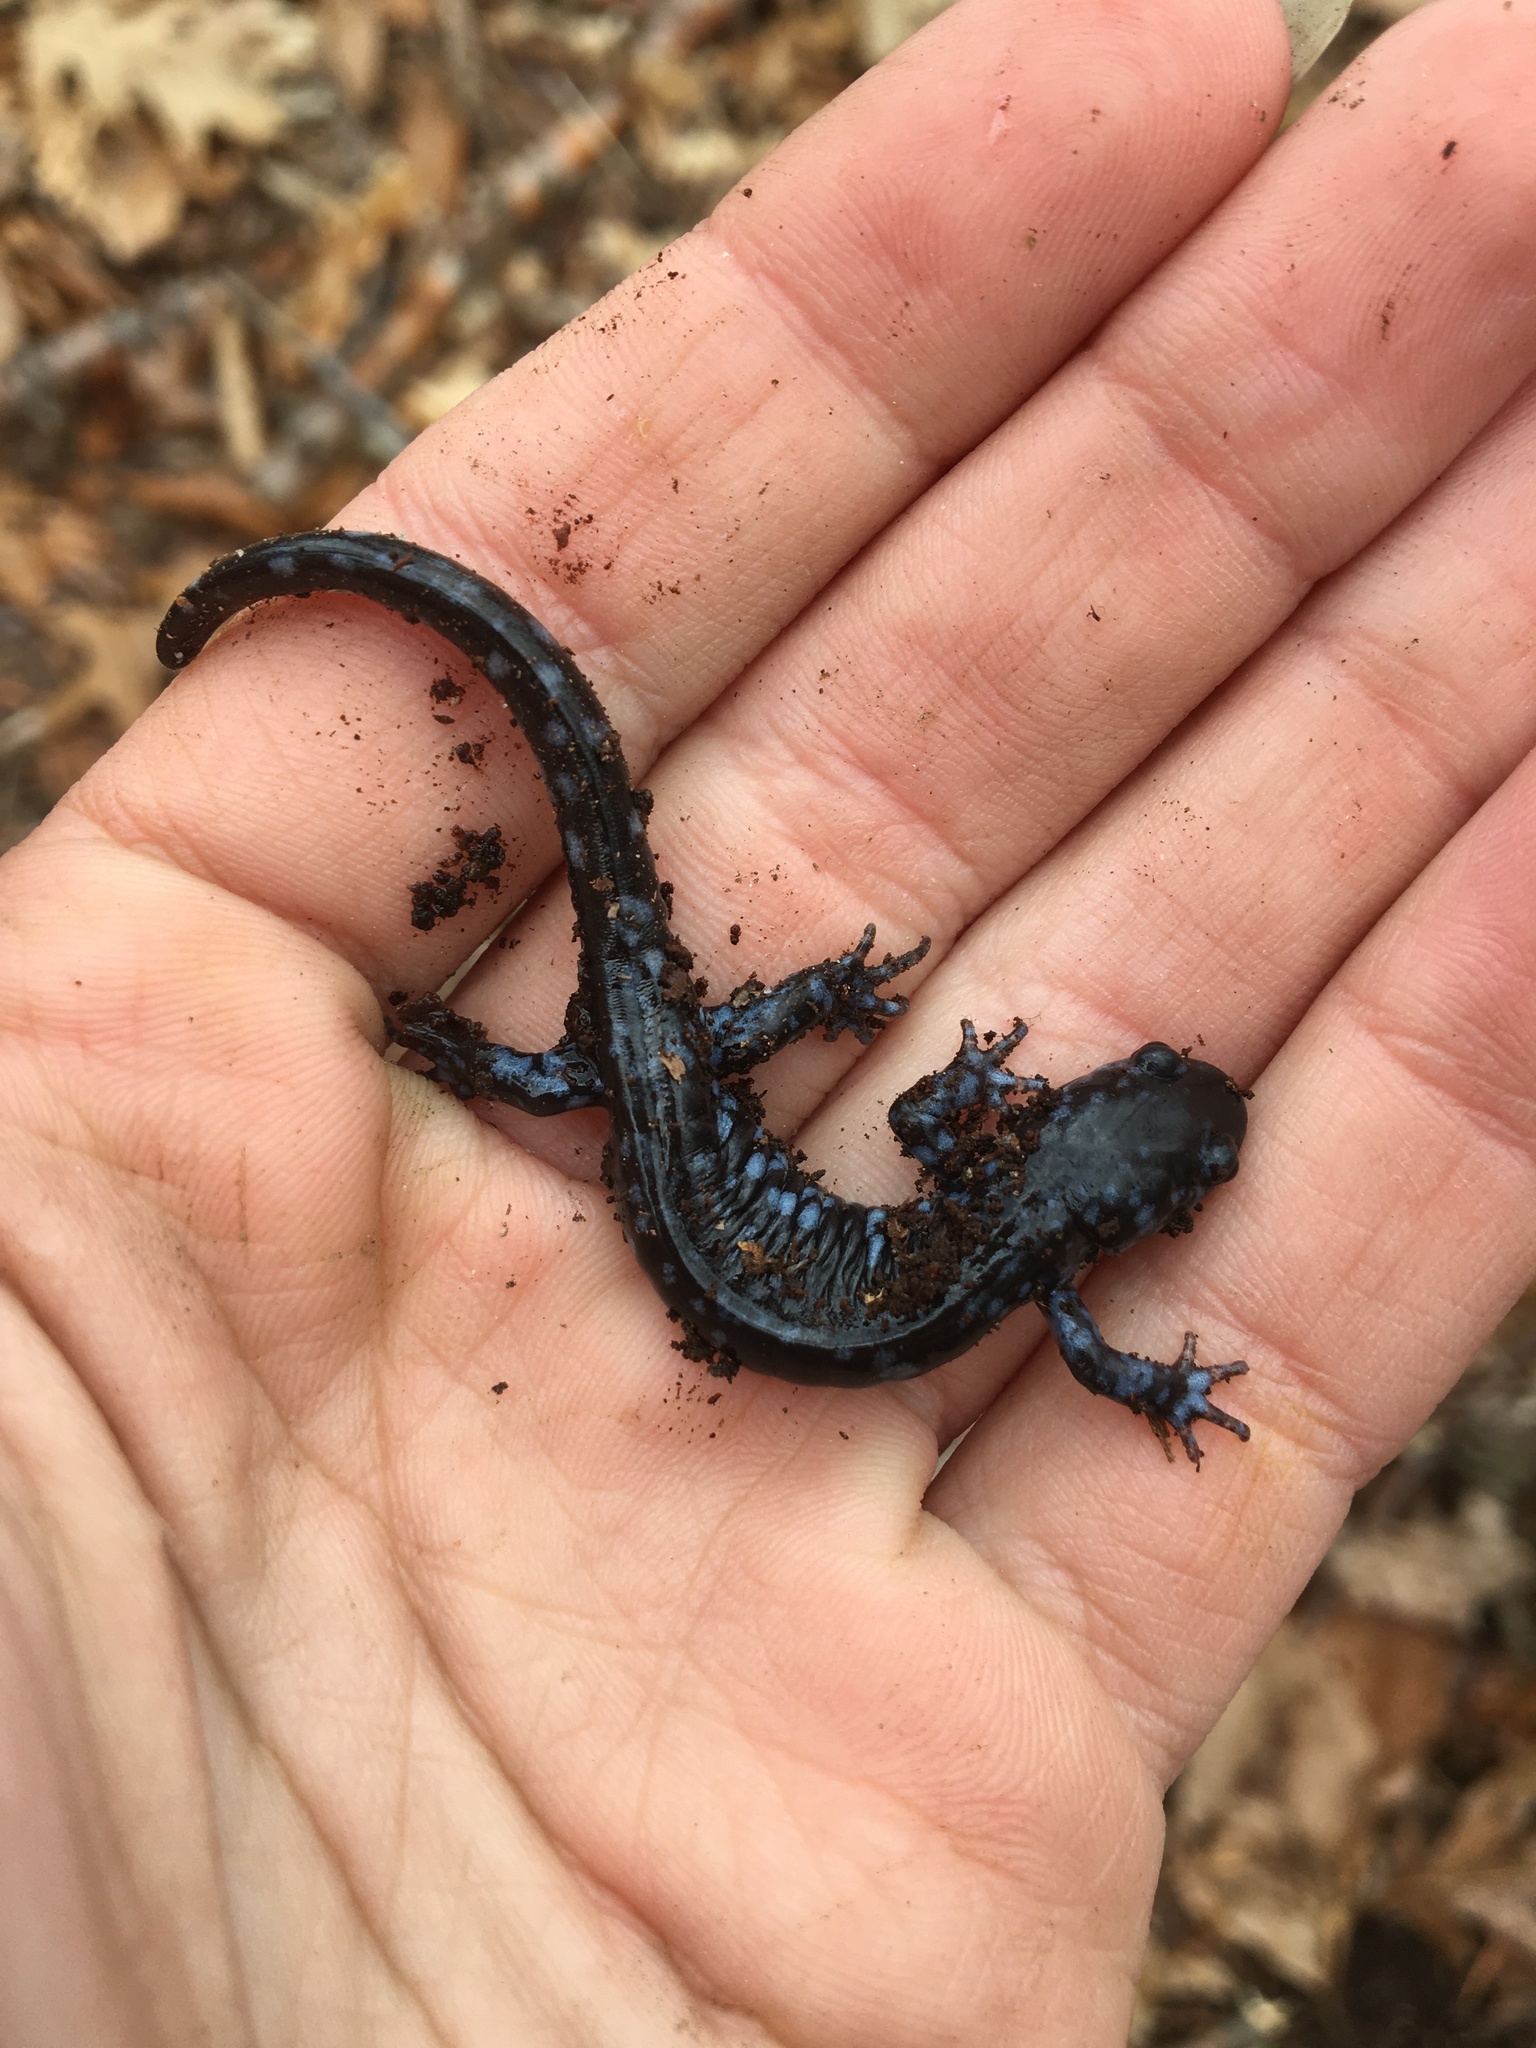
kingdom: Animalia
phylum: Chordata
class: Amphibia
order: Caudata
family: Ambystomatidae
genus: Ambystoma
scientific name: Ambystoma laterale
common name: Blue-spotted salamander
